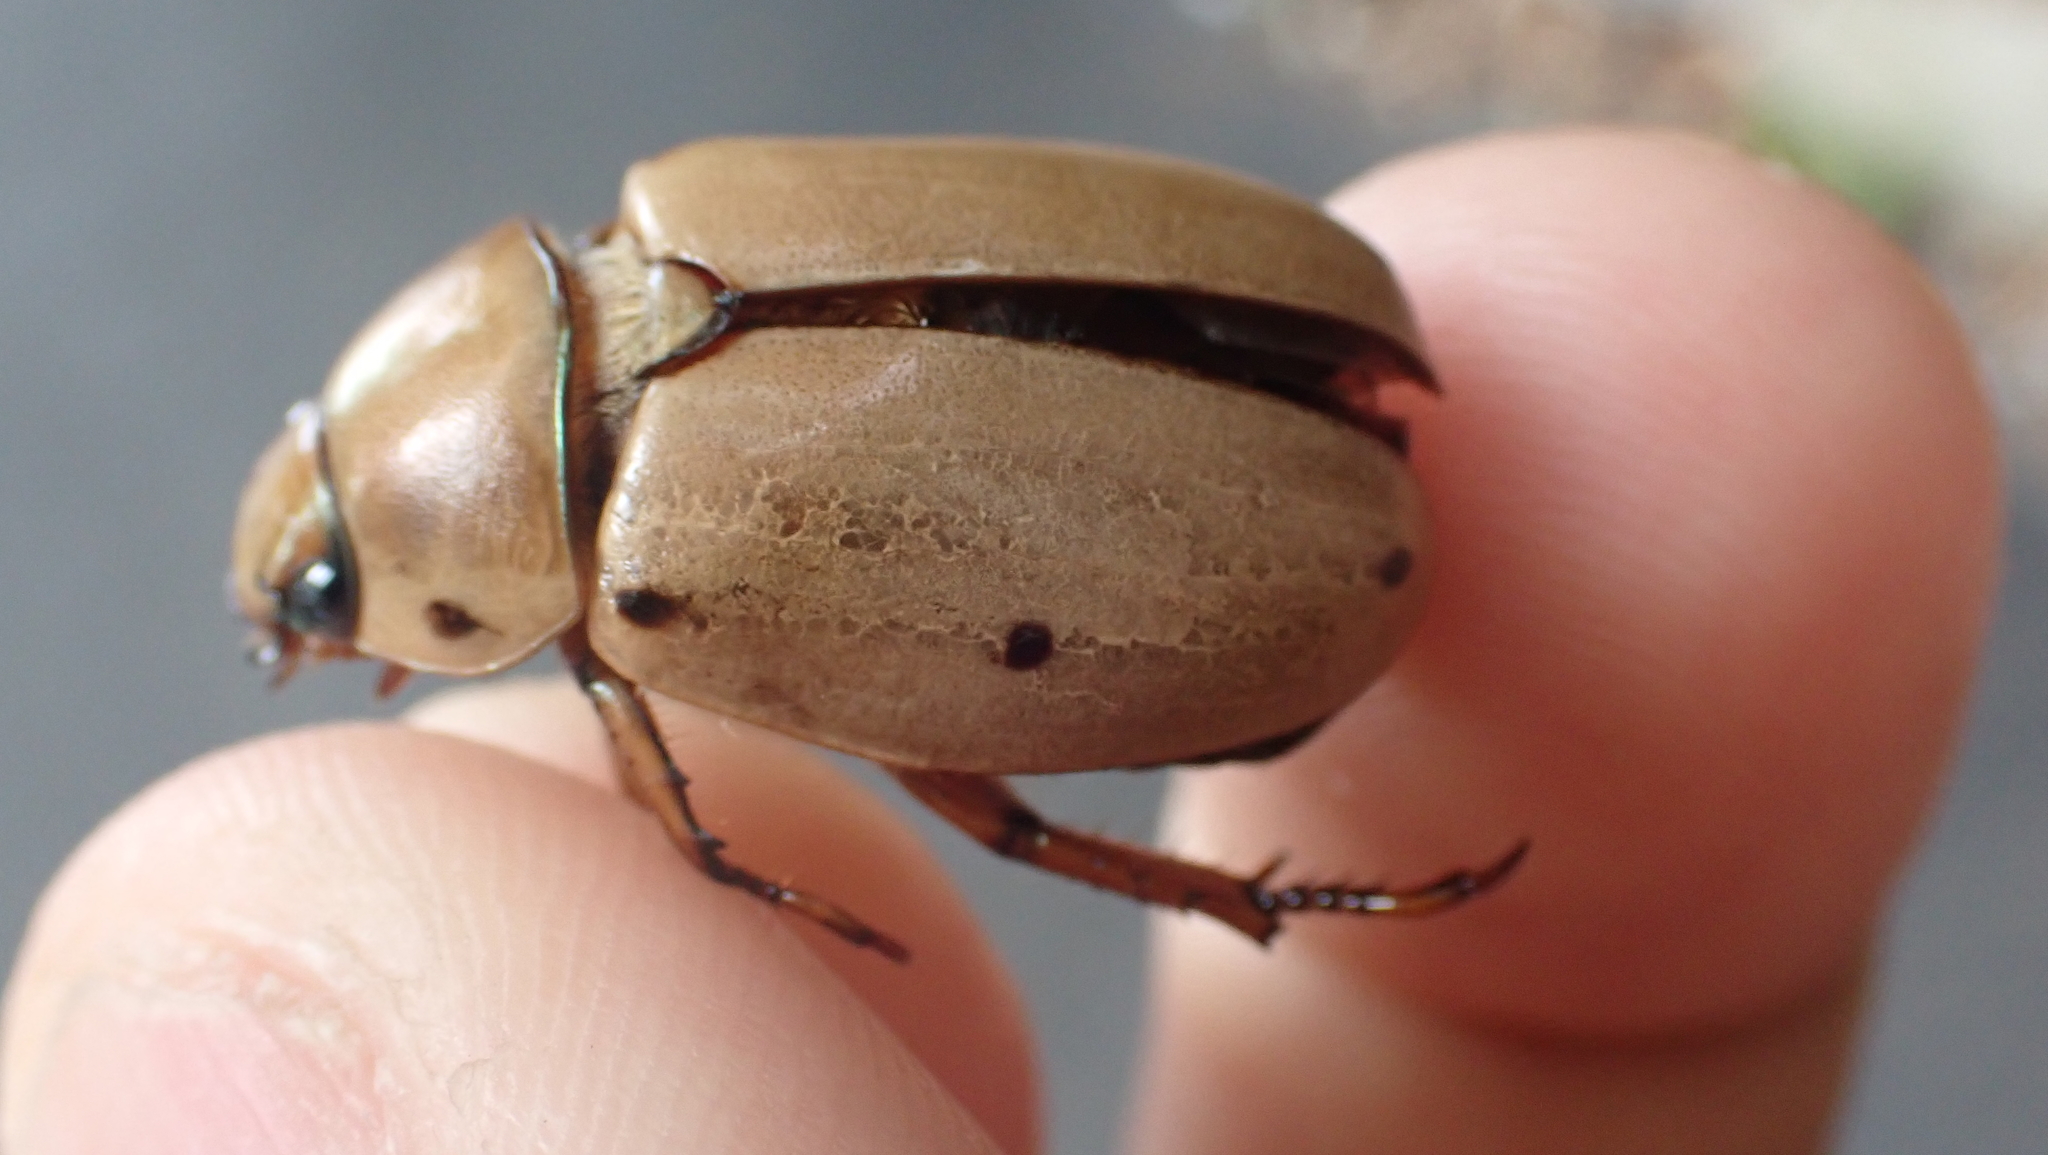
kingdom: Animalia
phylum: Arthropoda
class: Insecta
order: Coleoptera
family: Scarabaeidae
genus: Pelidnota
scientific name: Pelidnota punctata
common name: Grapevine beetle
